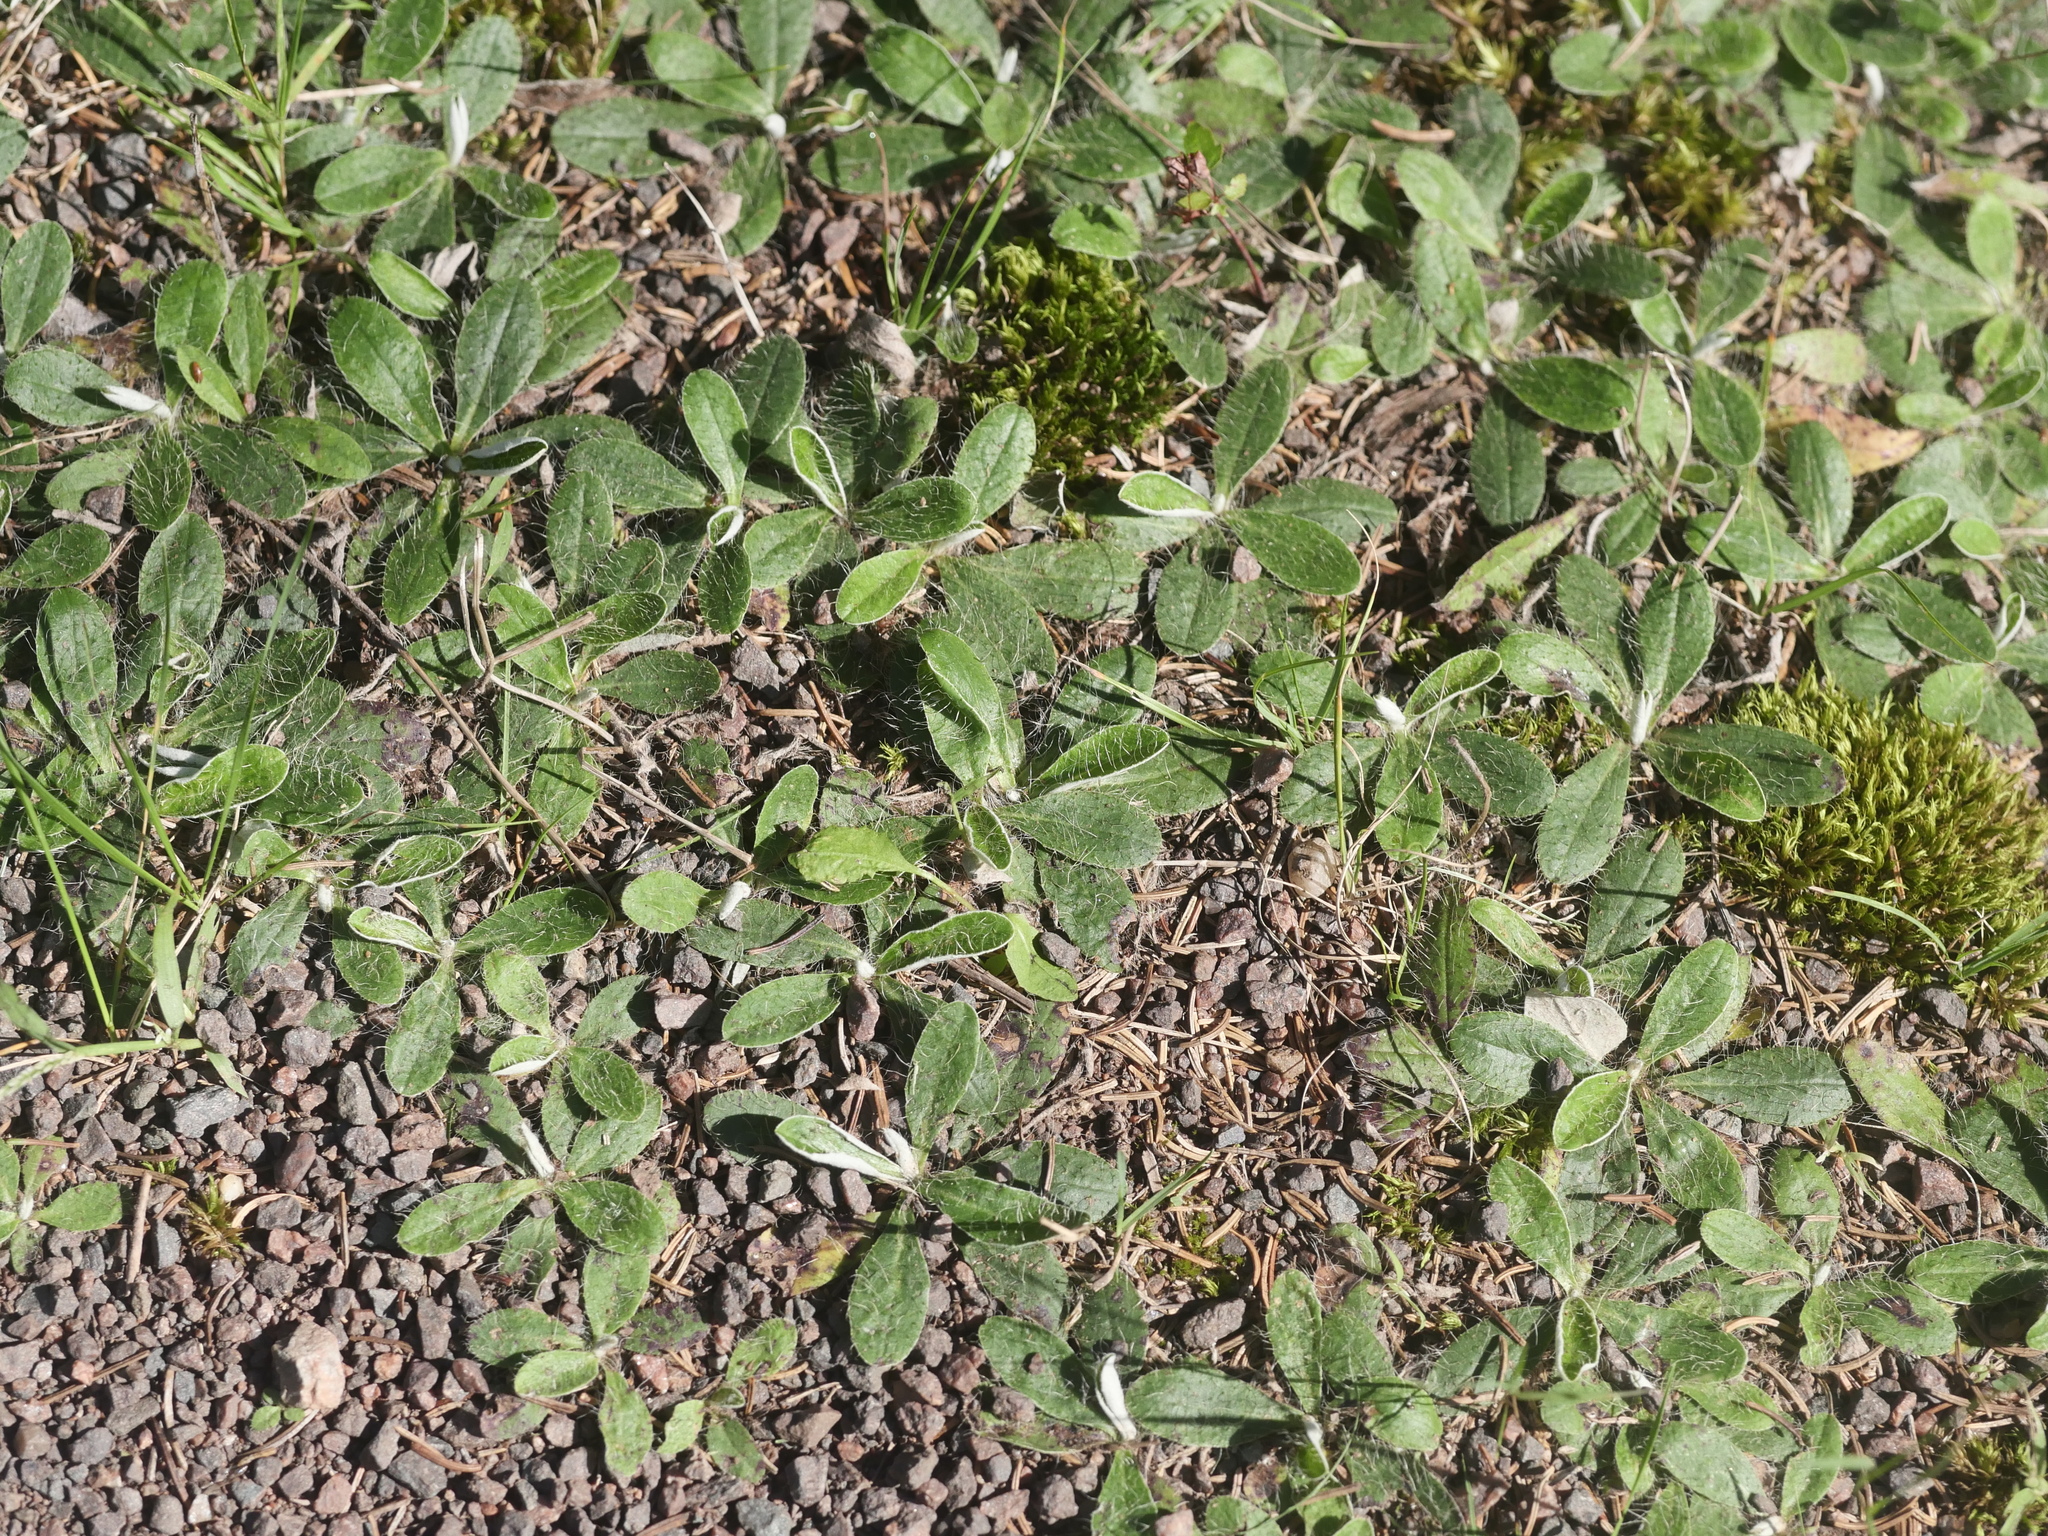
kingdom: Plantae
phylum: Tracheophyta
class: Magnoliopsida
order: Asterales
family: Asteraceae
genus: Pilosella
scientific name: Pilosella officinarum
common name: Mouse-ear hawkweed
